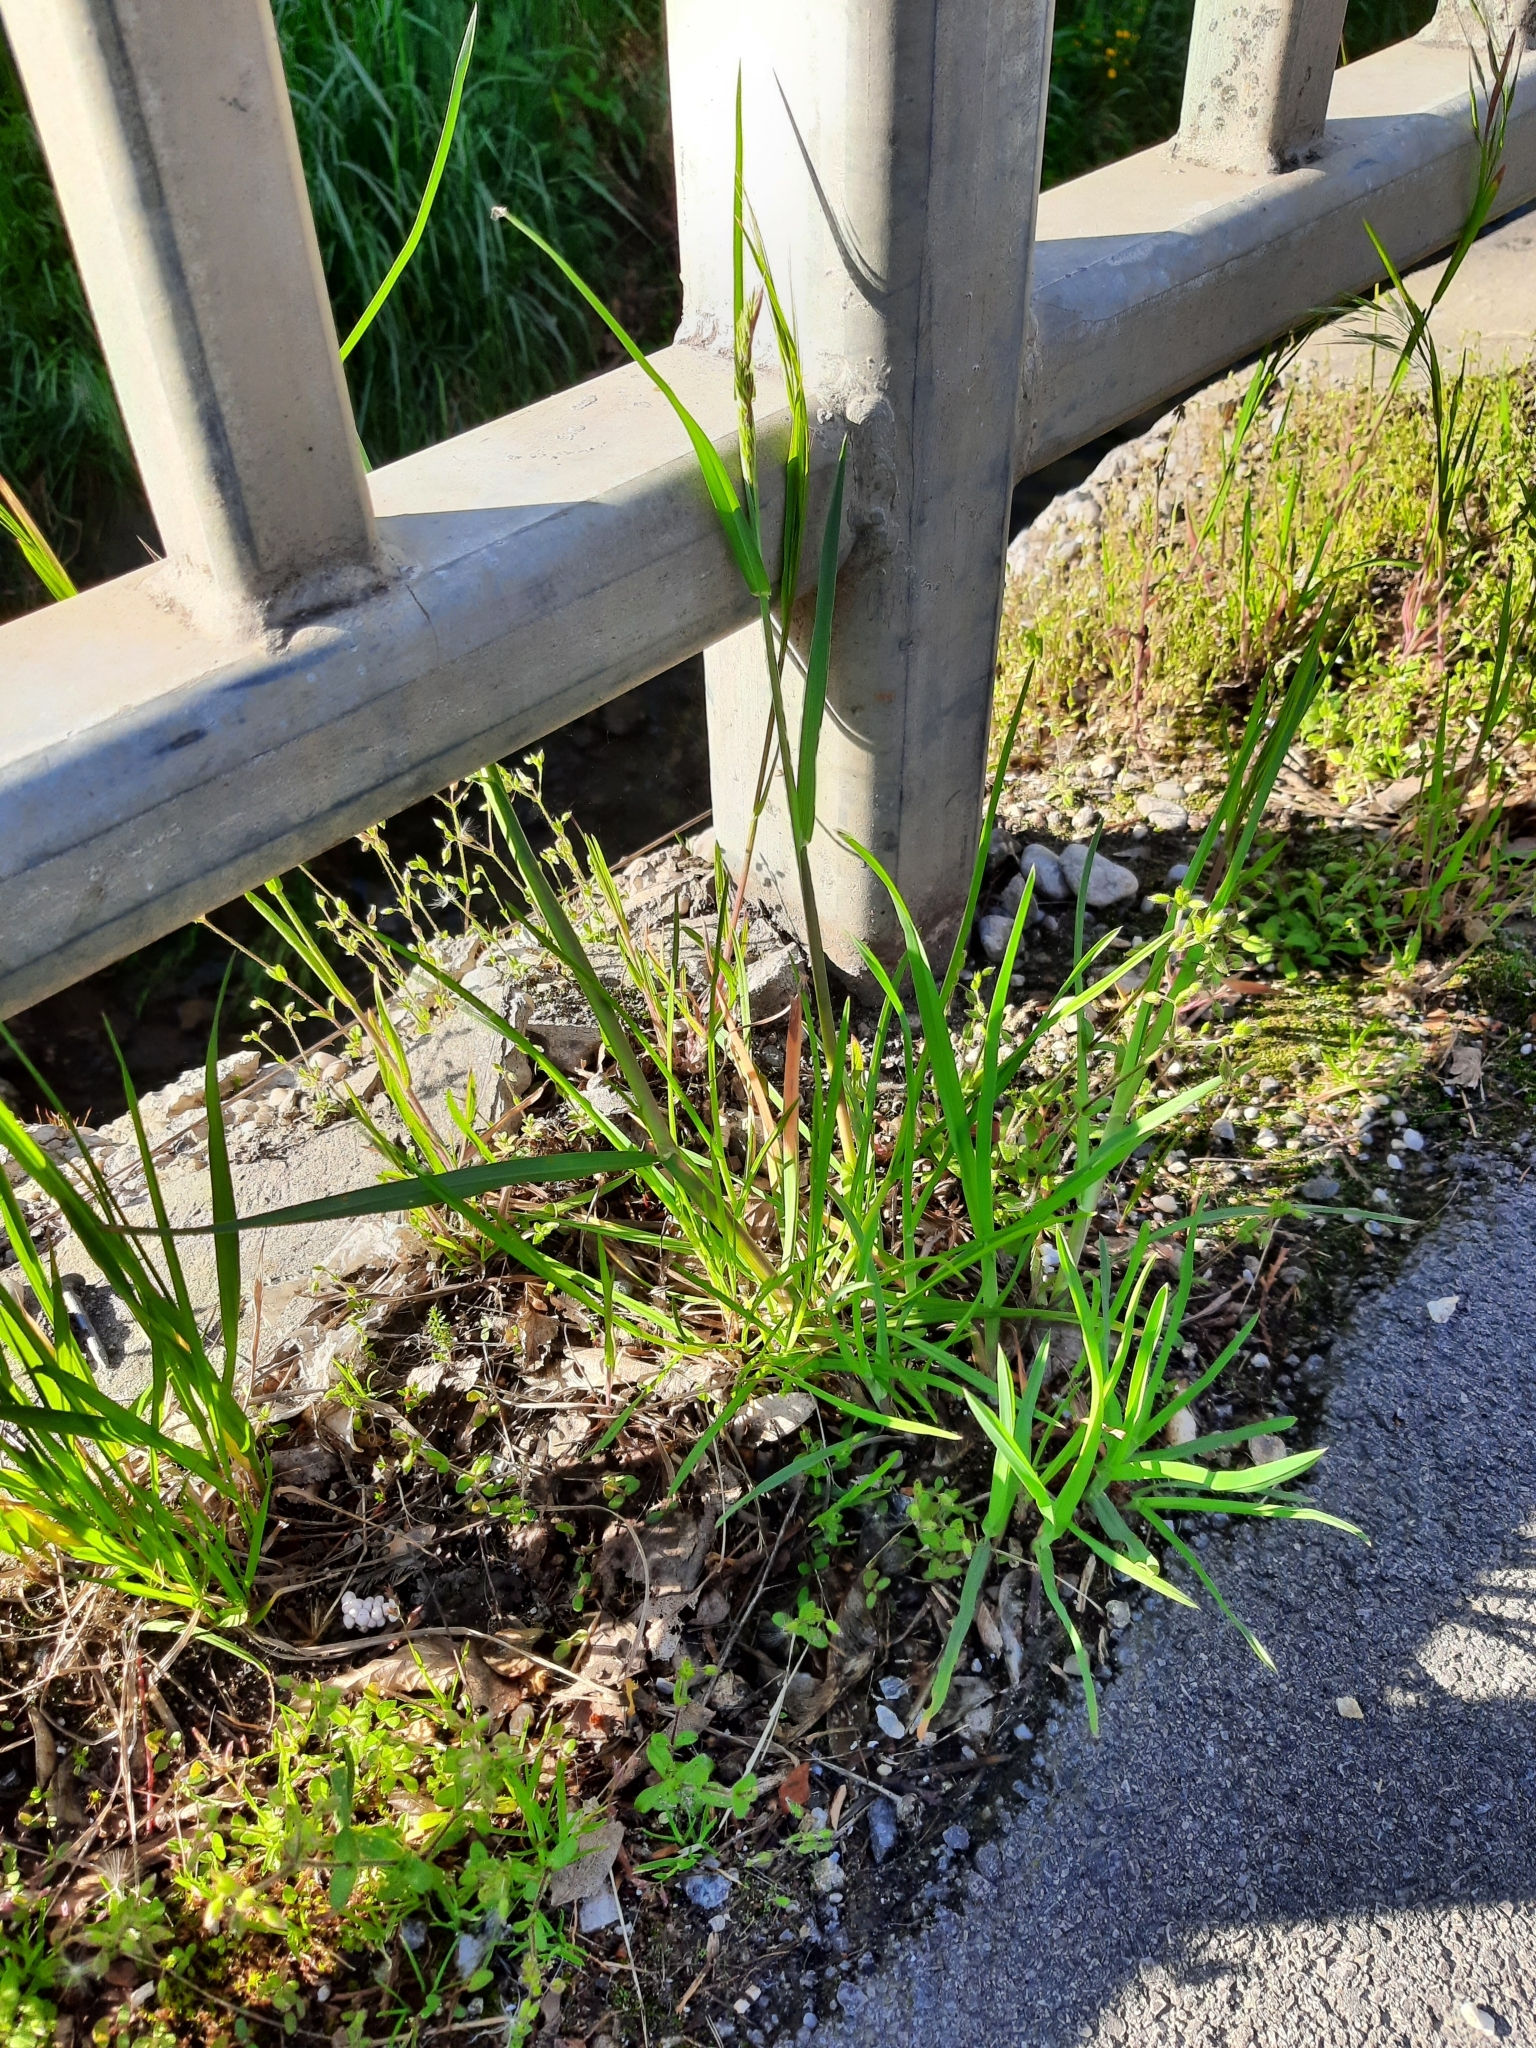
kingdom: Plantae
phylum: Tracheophyta
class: Liliopsida
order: Poales
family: Poaceae
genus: Dactylis
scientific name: Dactylis glomerata
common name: Orchardgrass
